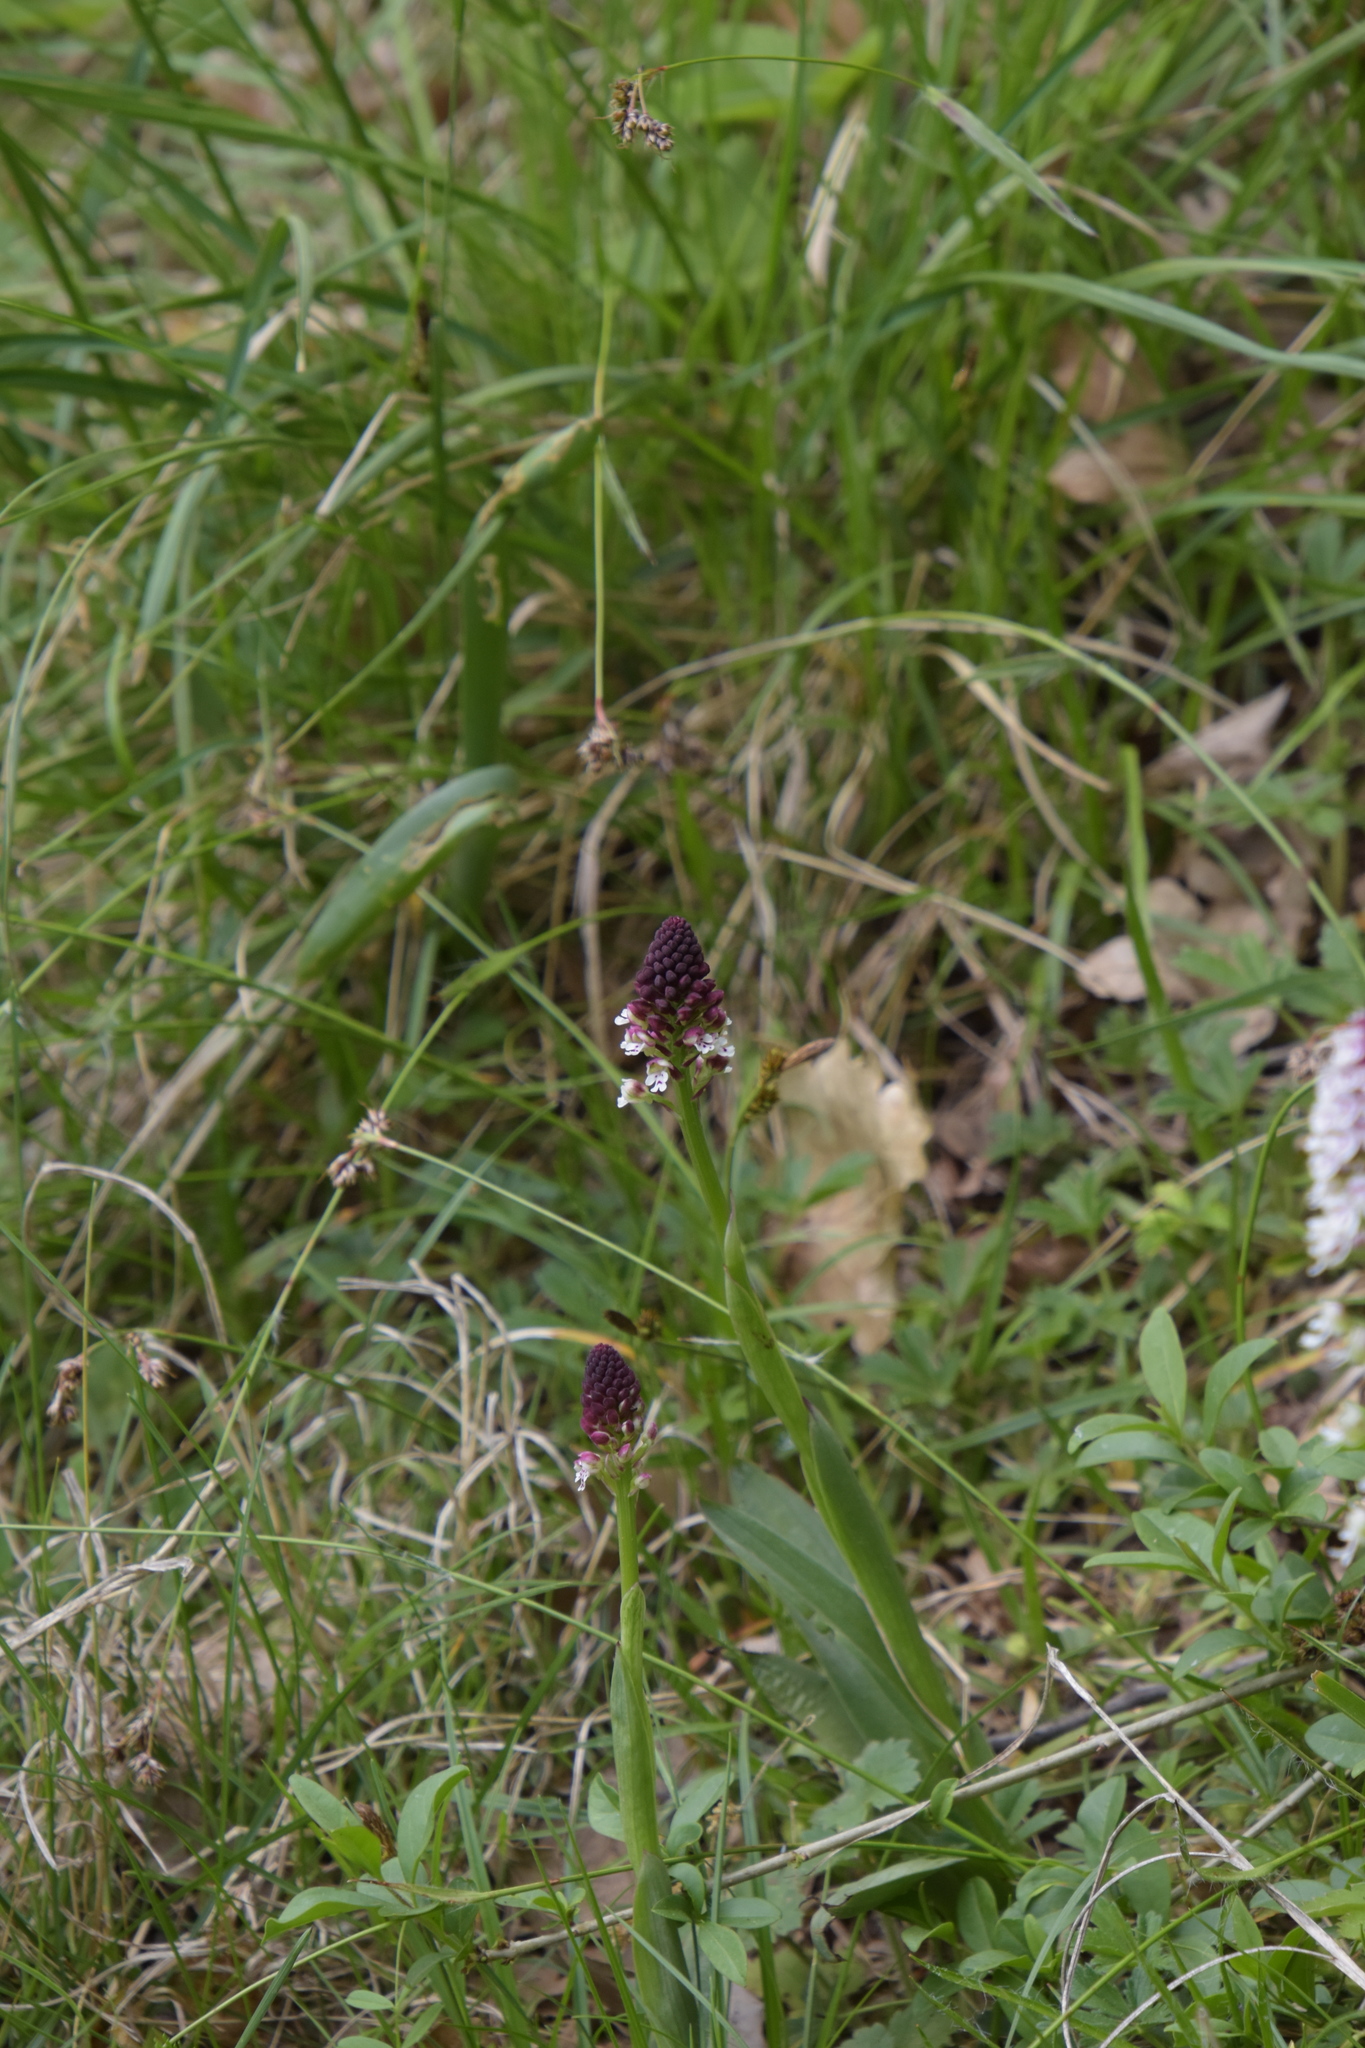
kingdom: Plantae
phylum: Tracheophyta
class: Liliopsida
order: Asparagales
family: Orchidaceae
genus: Neotinea
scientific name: Neotinea ustulata
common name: Burnt orchid
